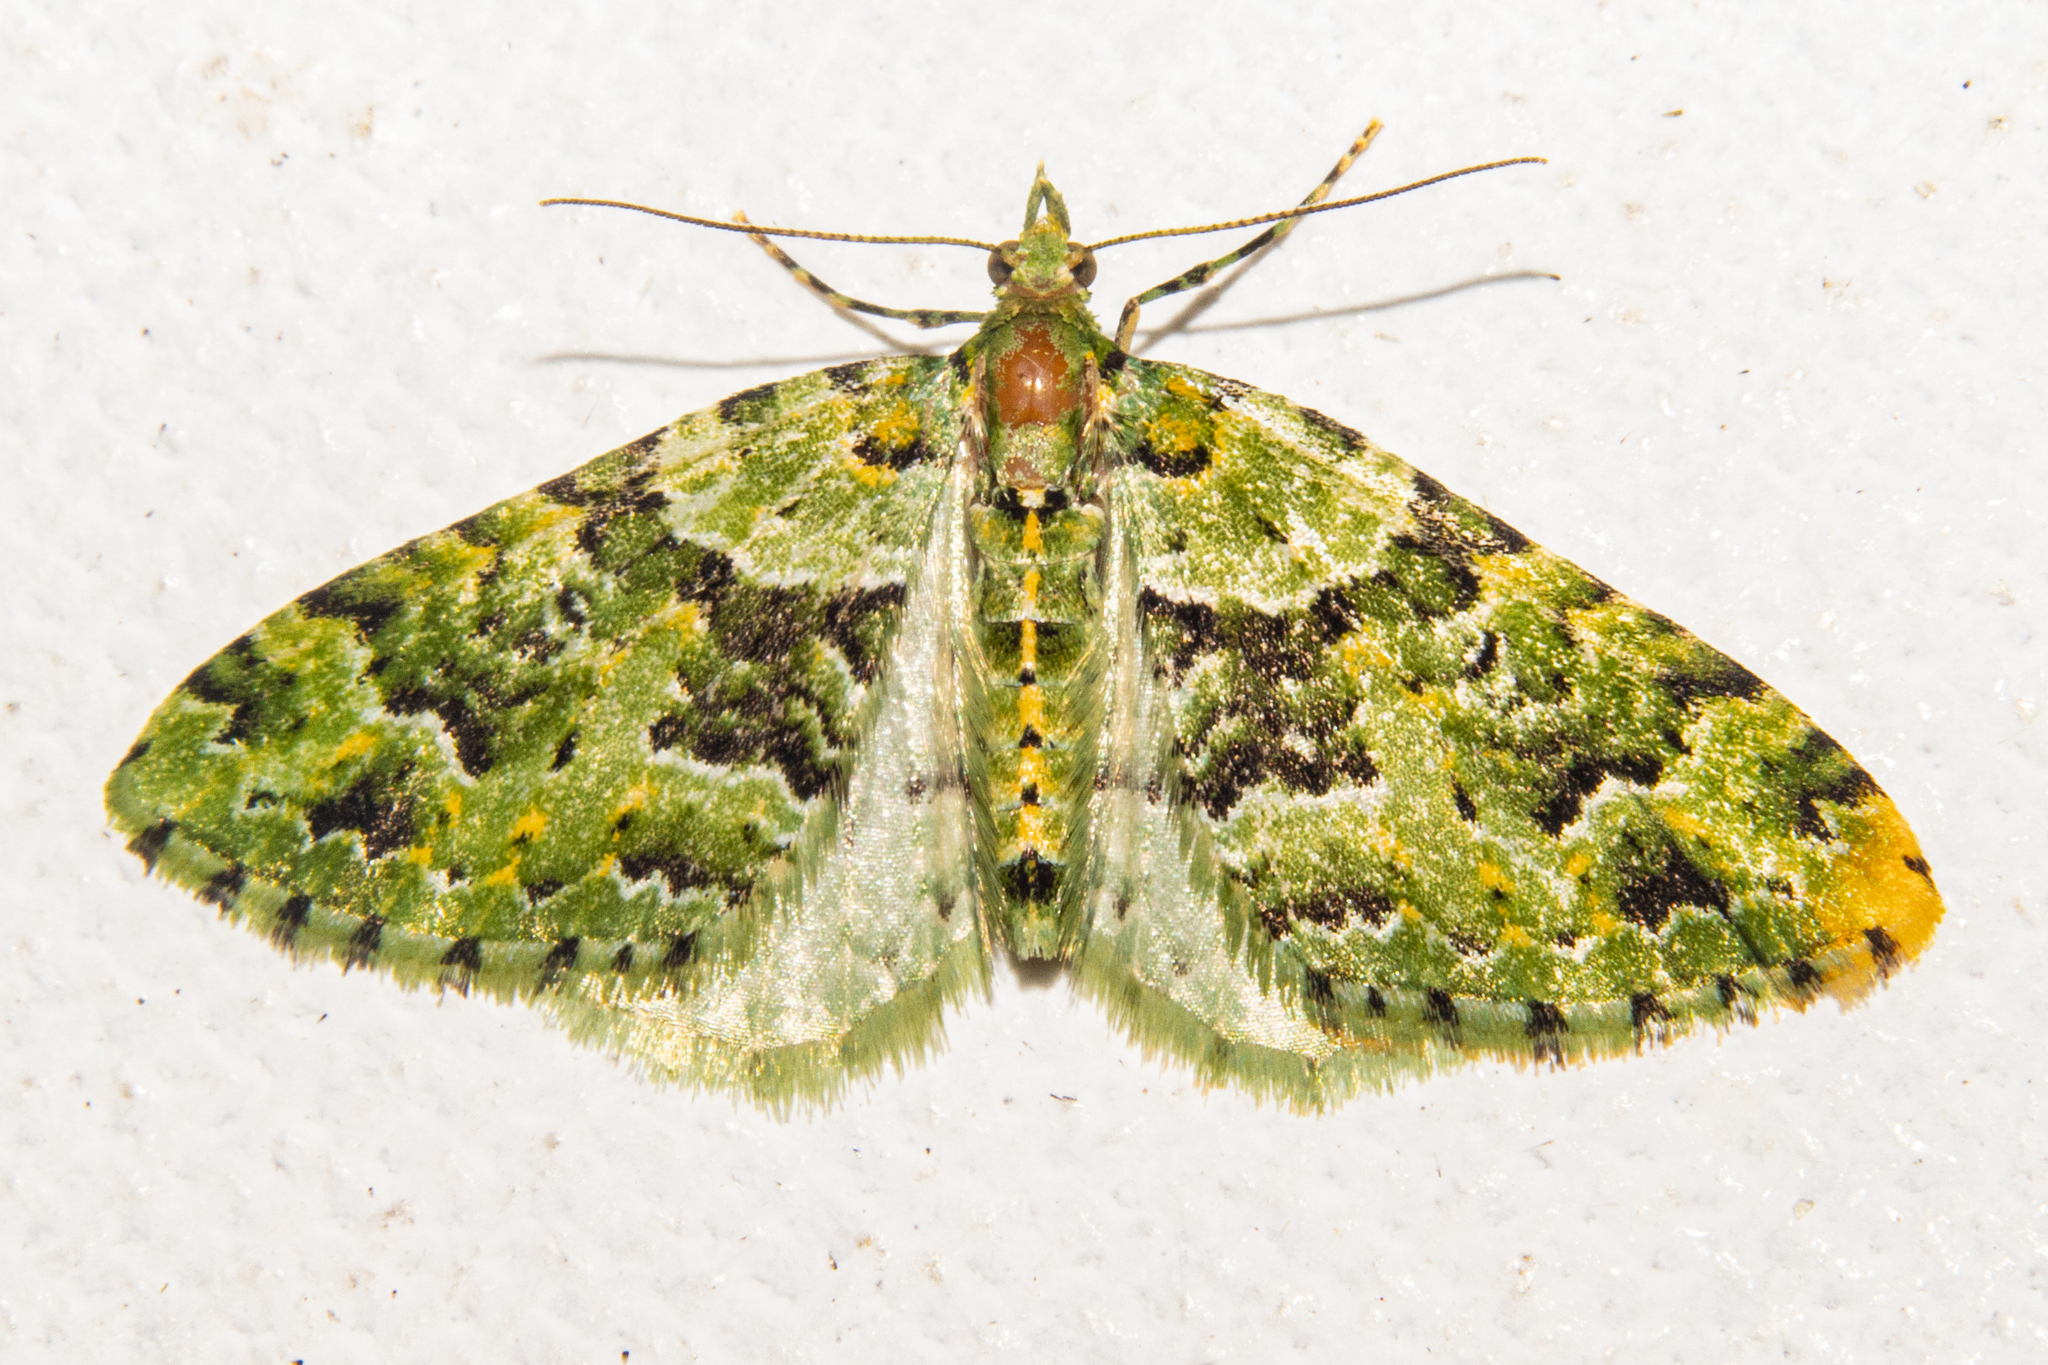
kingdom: Animalia
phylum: Arthropoda
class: Insecta
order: Lepidoptera
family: Geometridae
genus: Pasiphila
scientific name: Pasiphila melochlora
